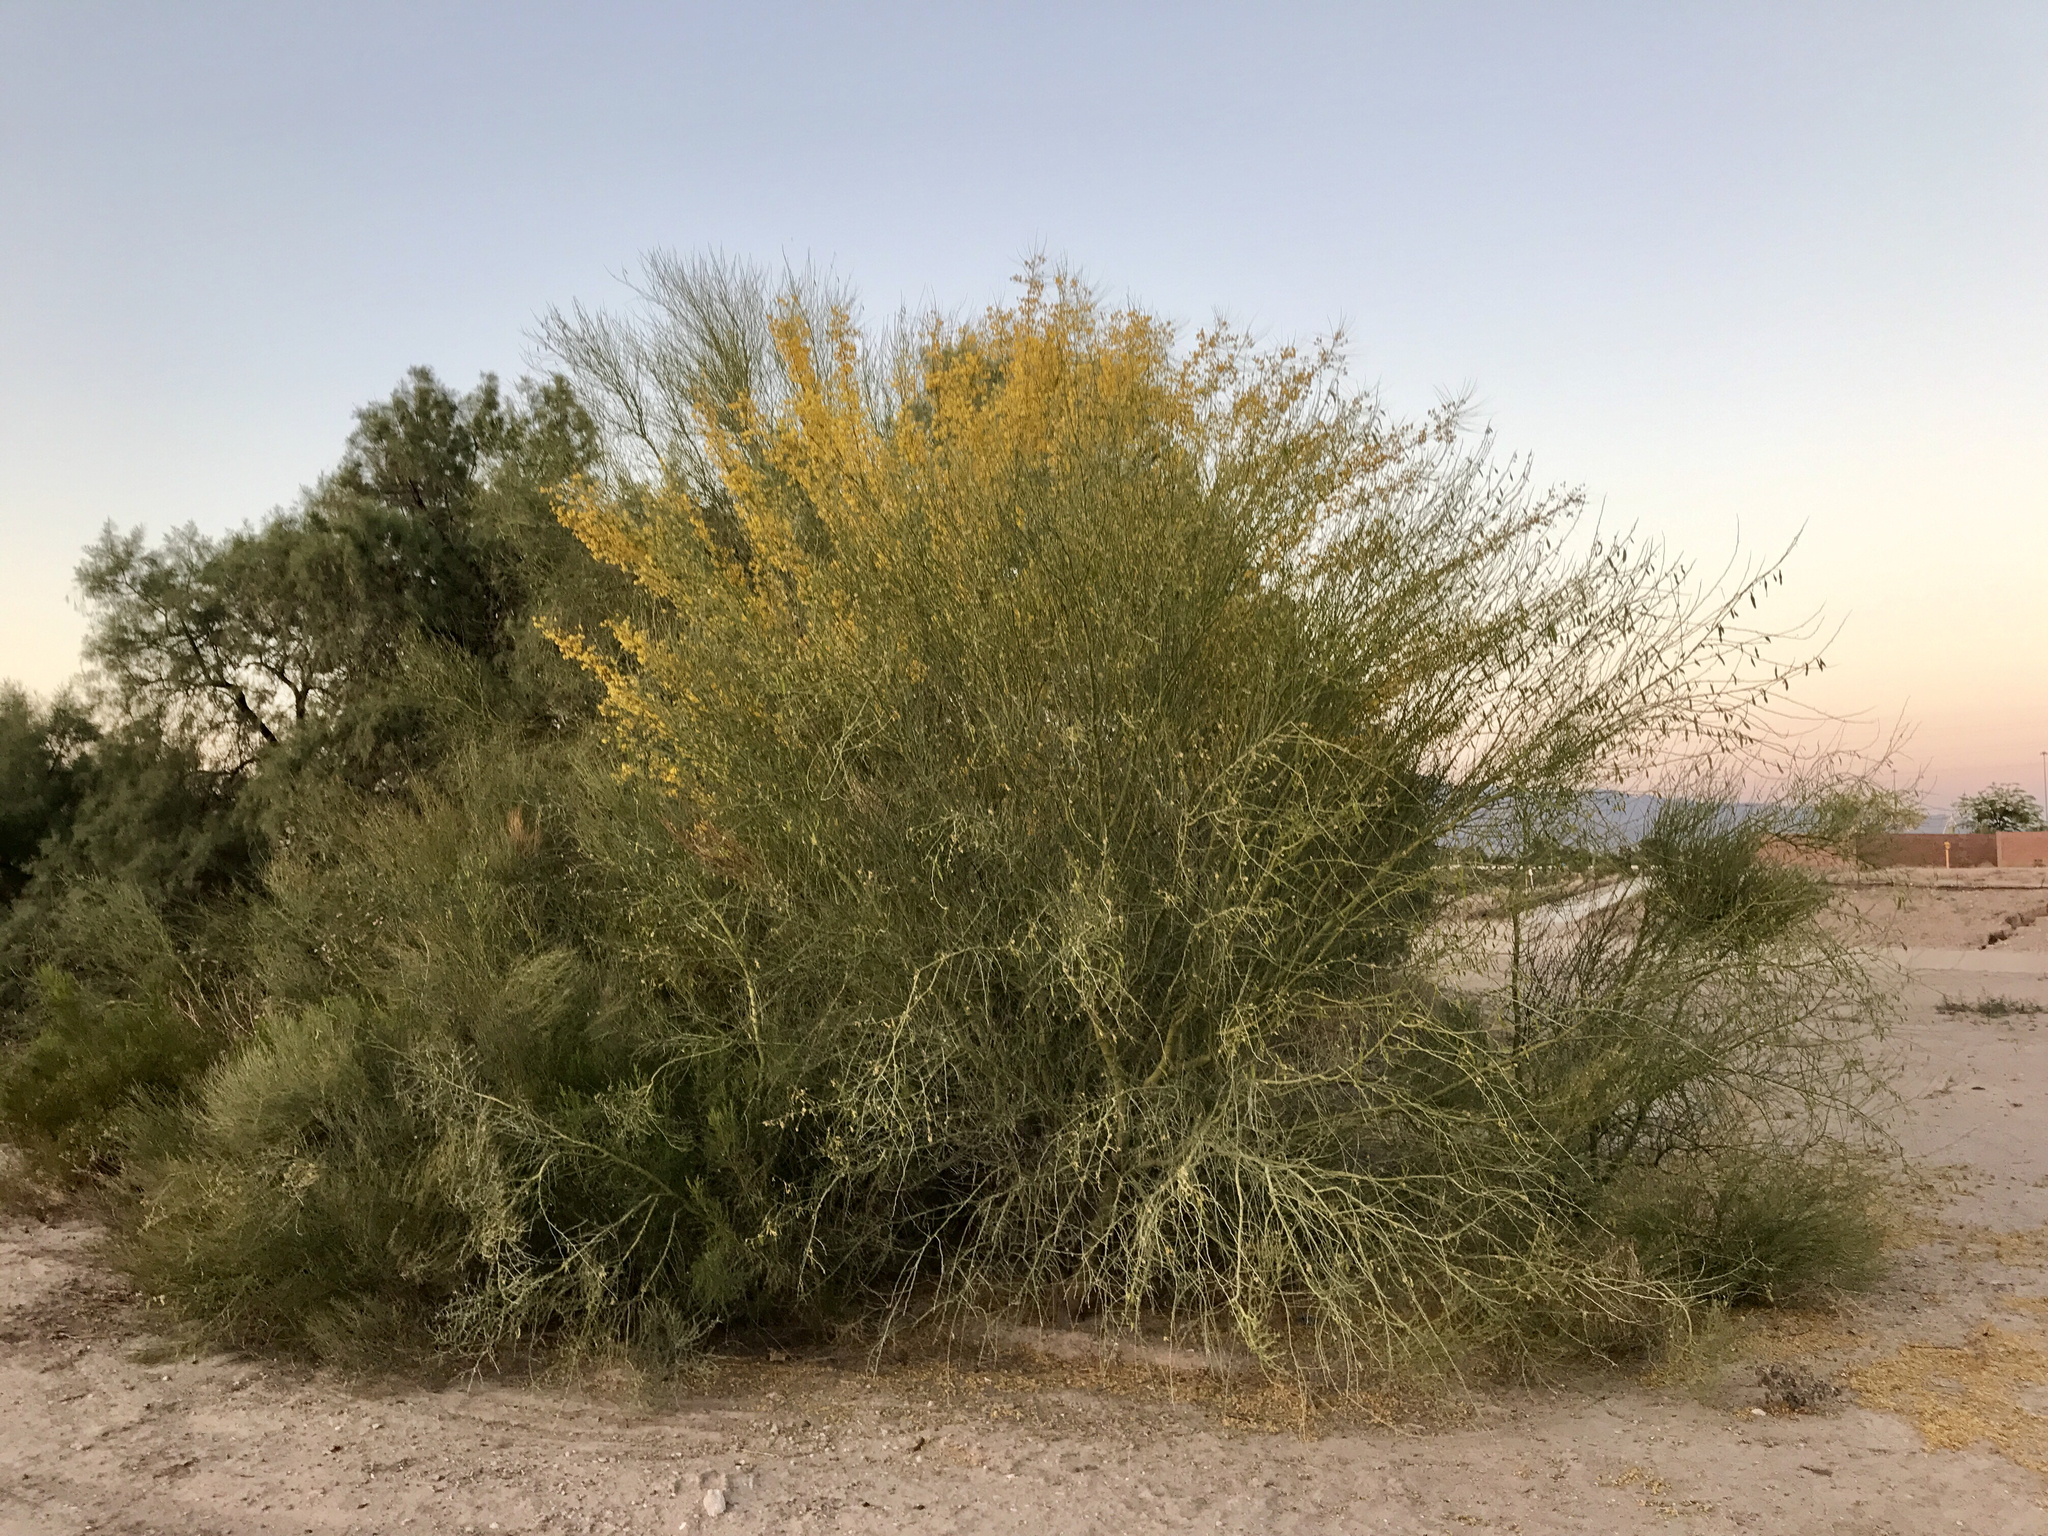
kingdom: Plantae
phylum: Tracheophyta
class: Magnoliopsida
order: Fabales
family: Fabaceae
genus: Parkinsonia
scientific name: Parkinsonia florida
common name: Blue paloverde
